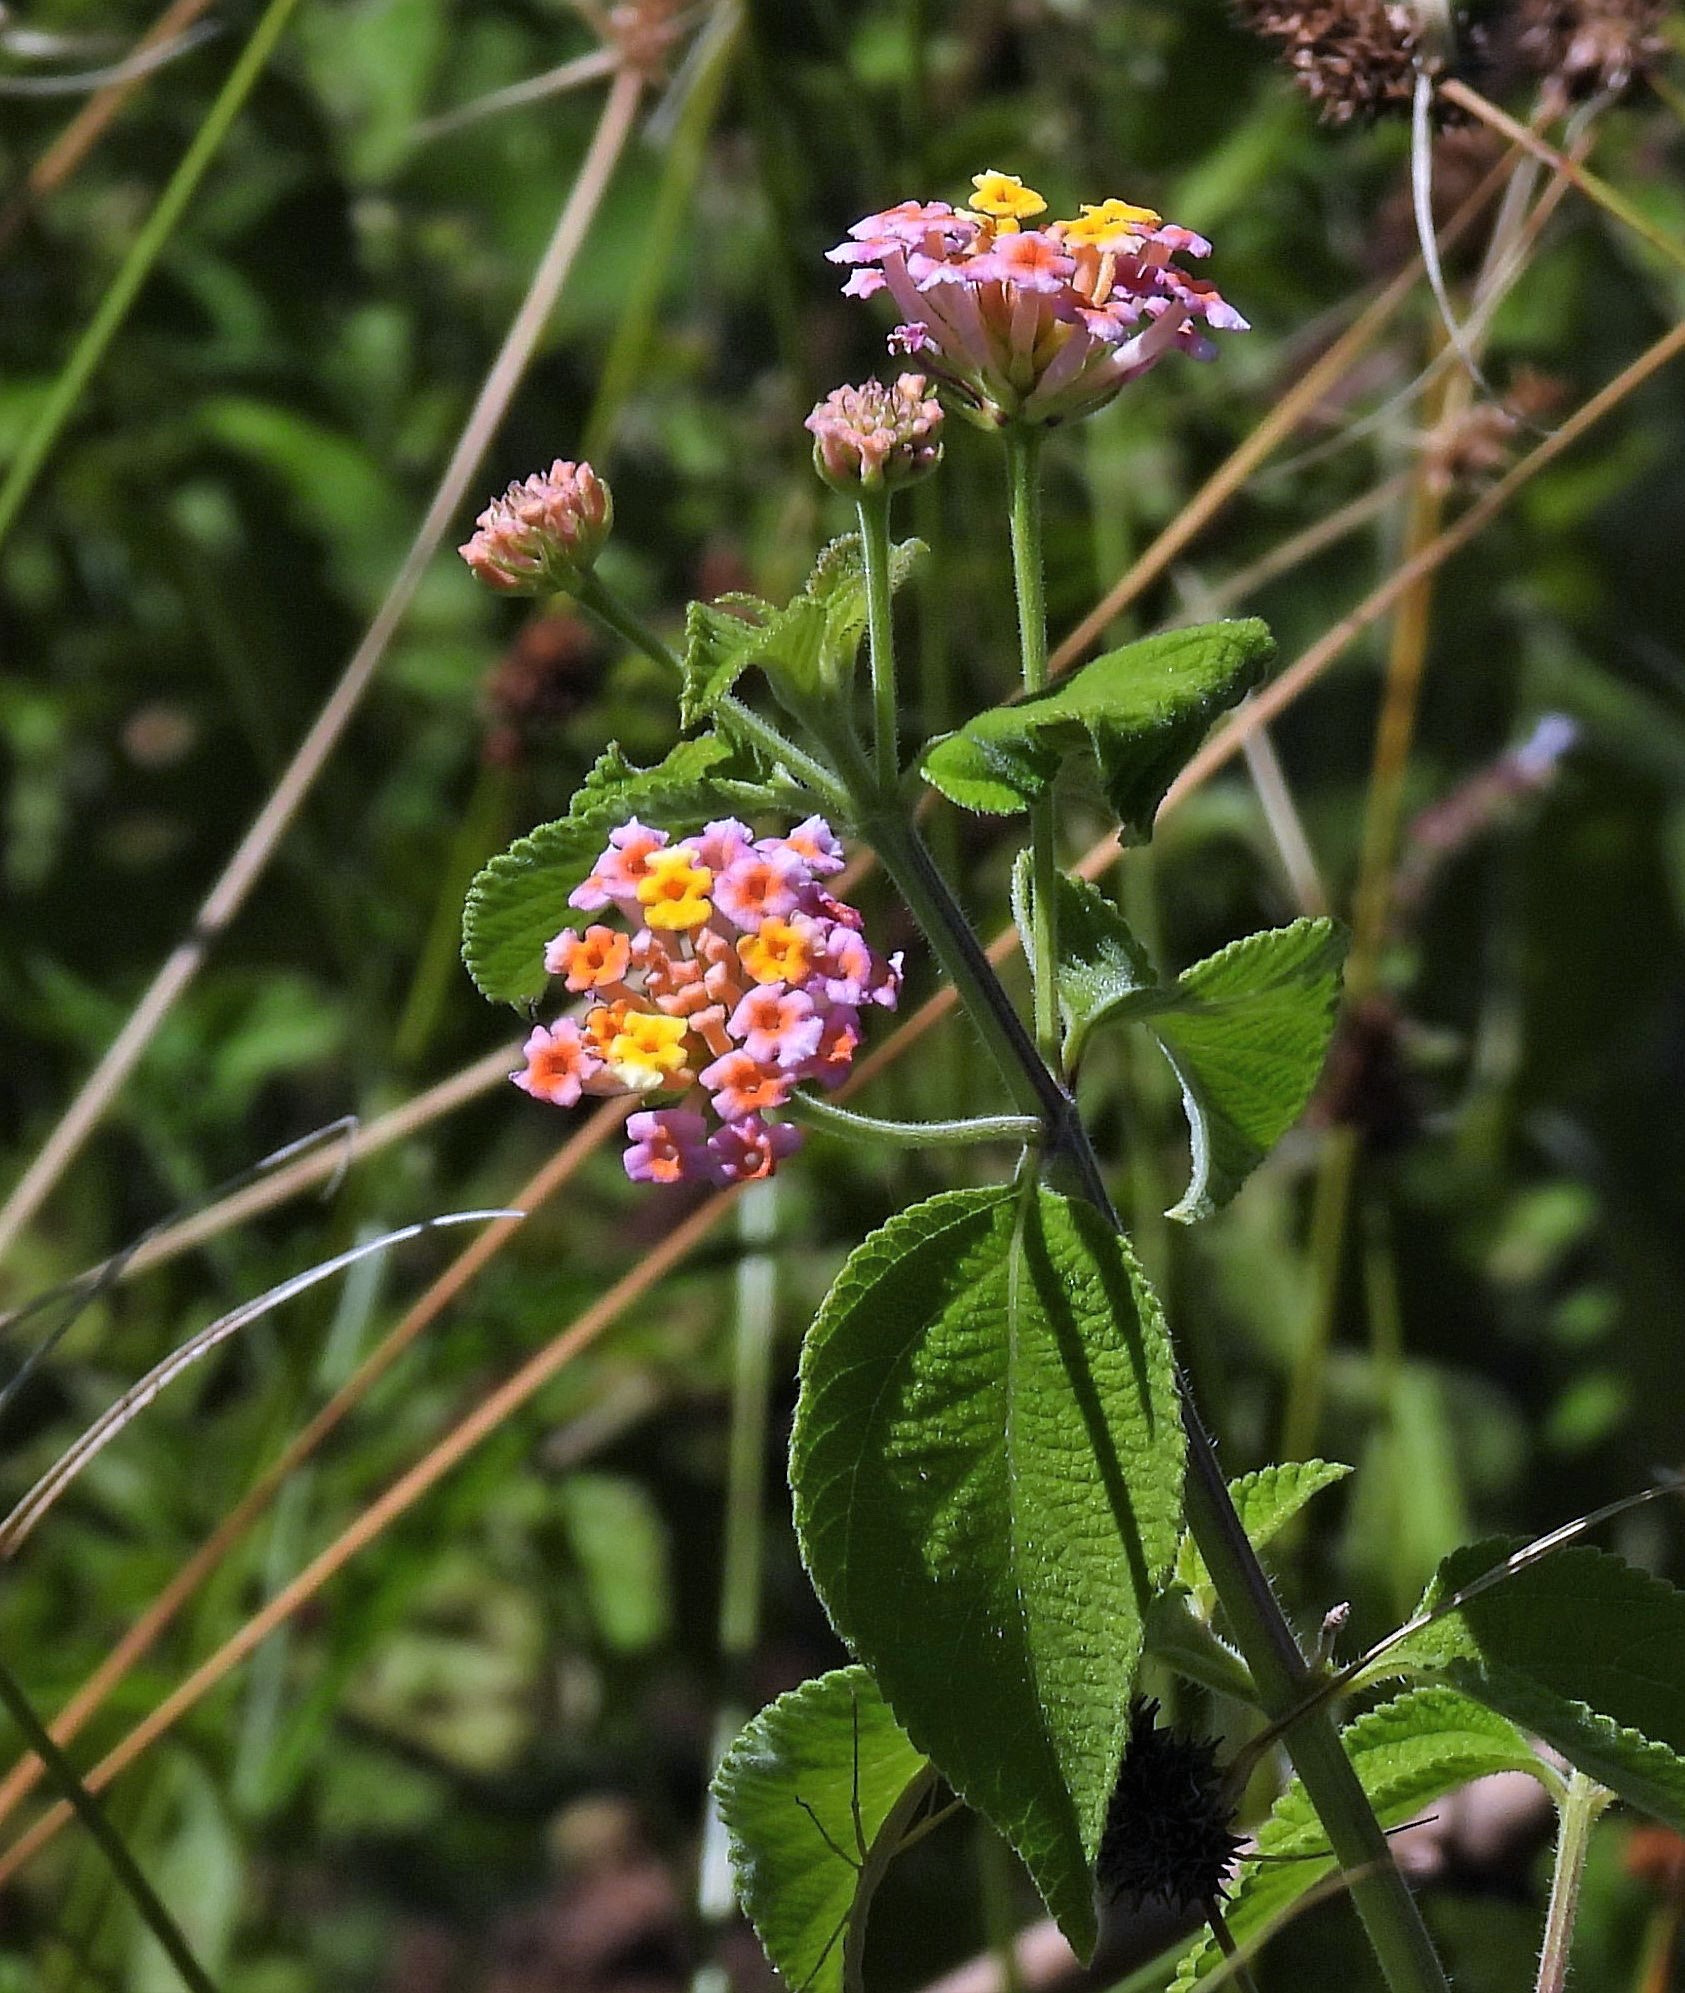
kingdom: Plantae
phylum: Tracheophyta
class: Magnoliopsida
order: Lamiales
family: Verbenaceae
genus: Lantana
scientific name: Lantana camara
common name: Lantana
